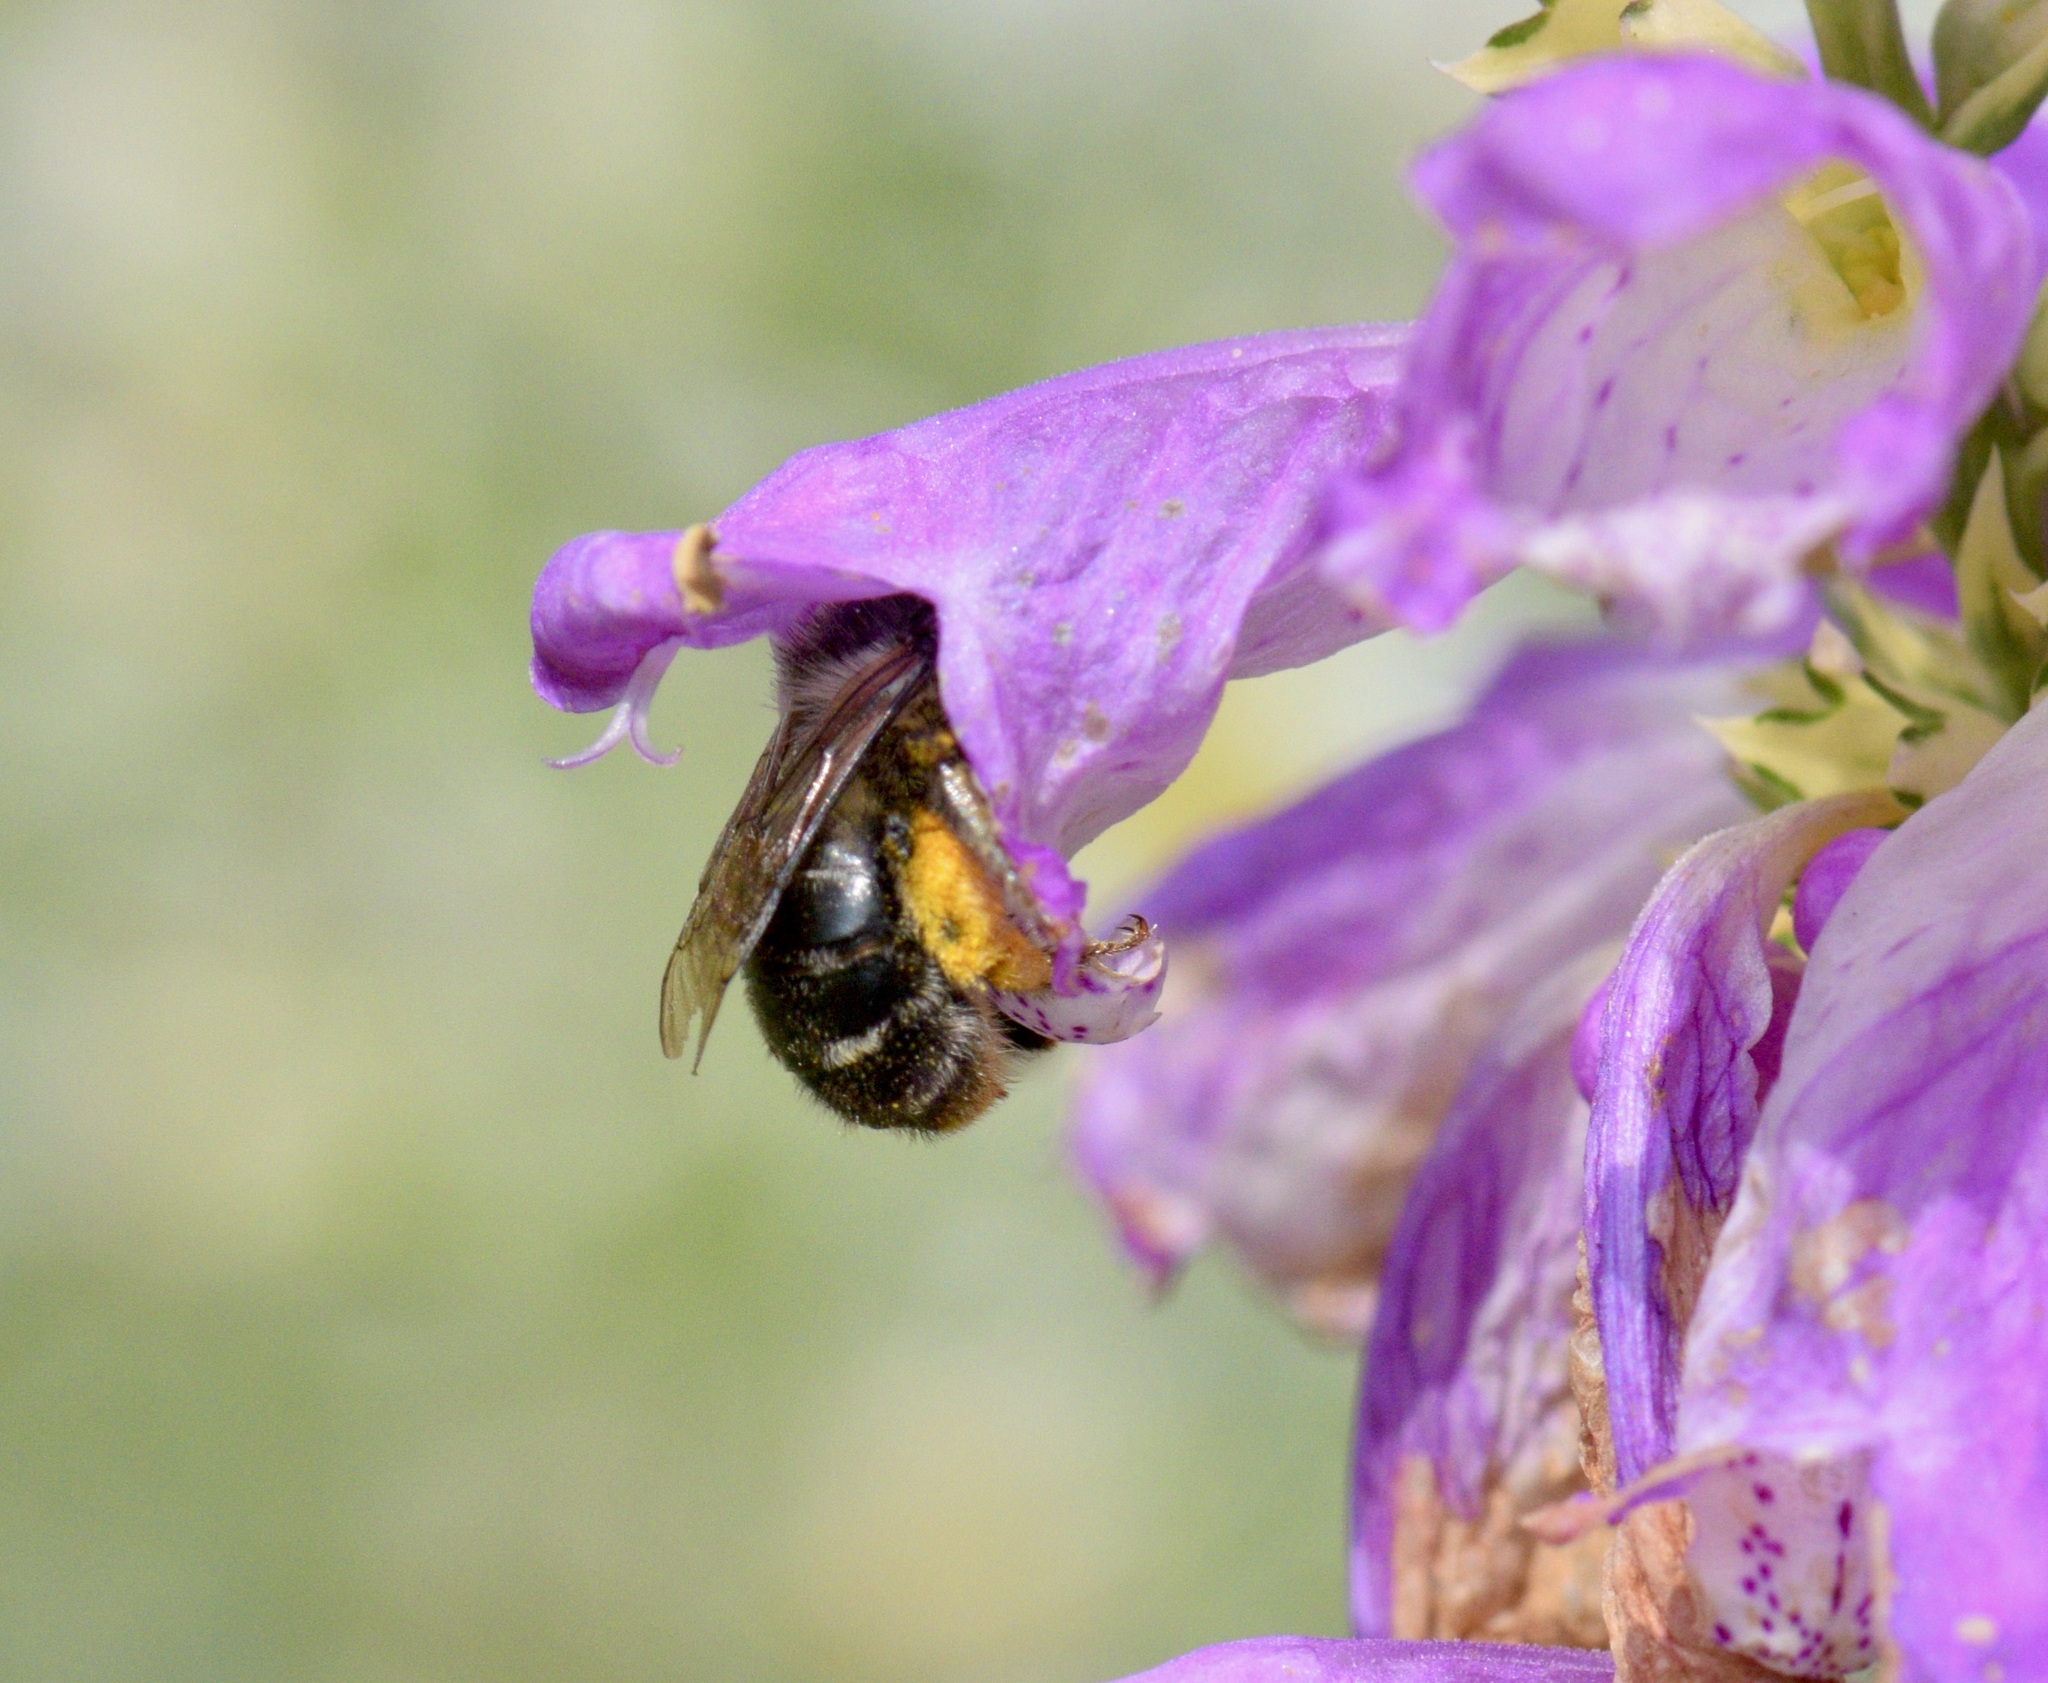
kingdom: Animalia
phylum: Arthropoda
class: Insecta
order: Hymenoptera
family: Apidae
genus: Anthophora
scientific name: Anthophora terminalis
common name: Orange-tipped wood-digger bee
